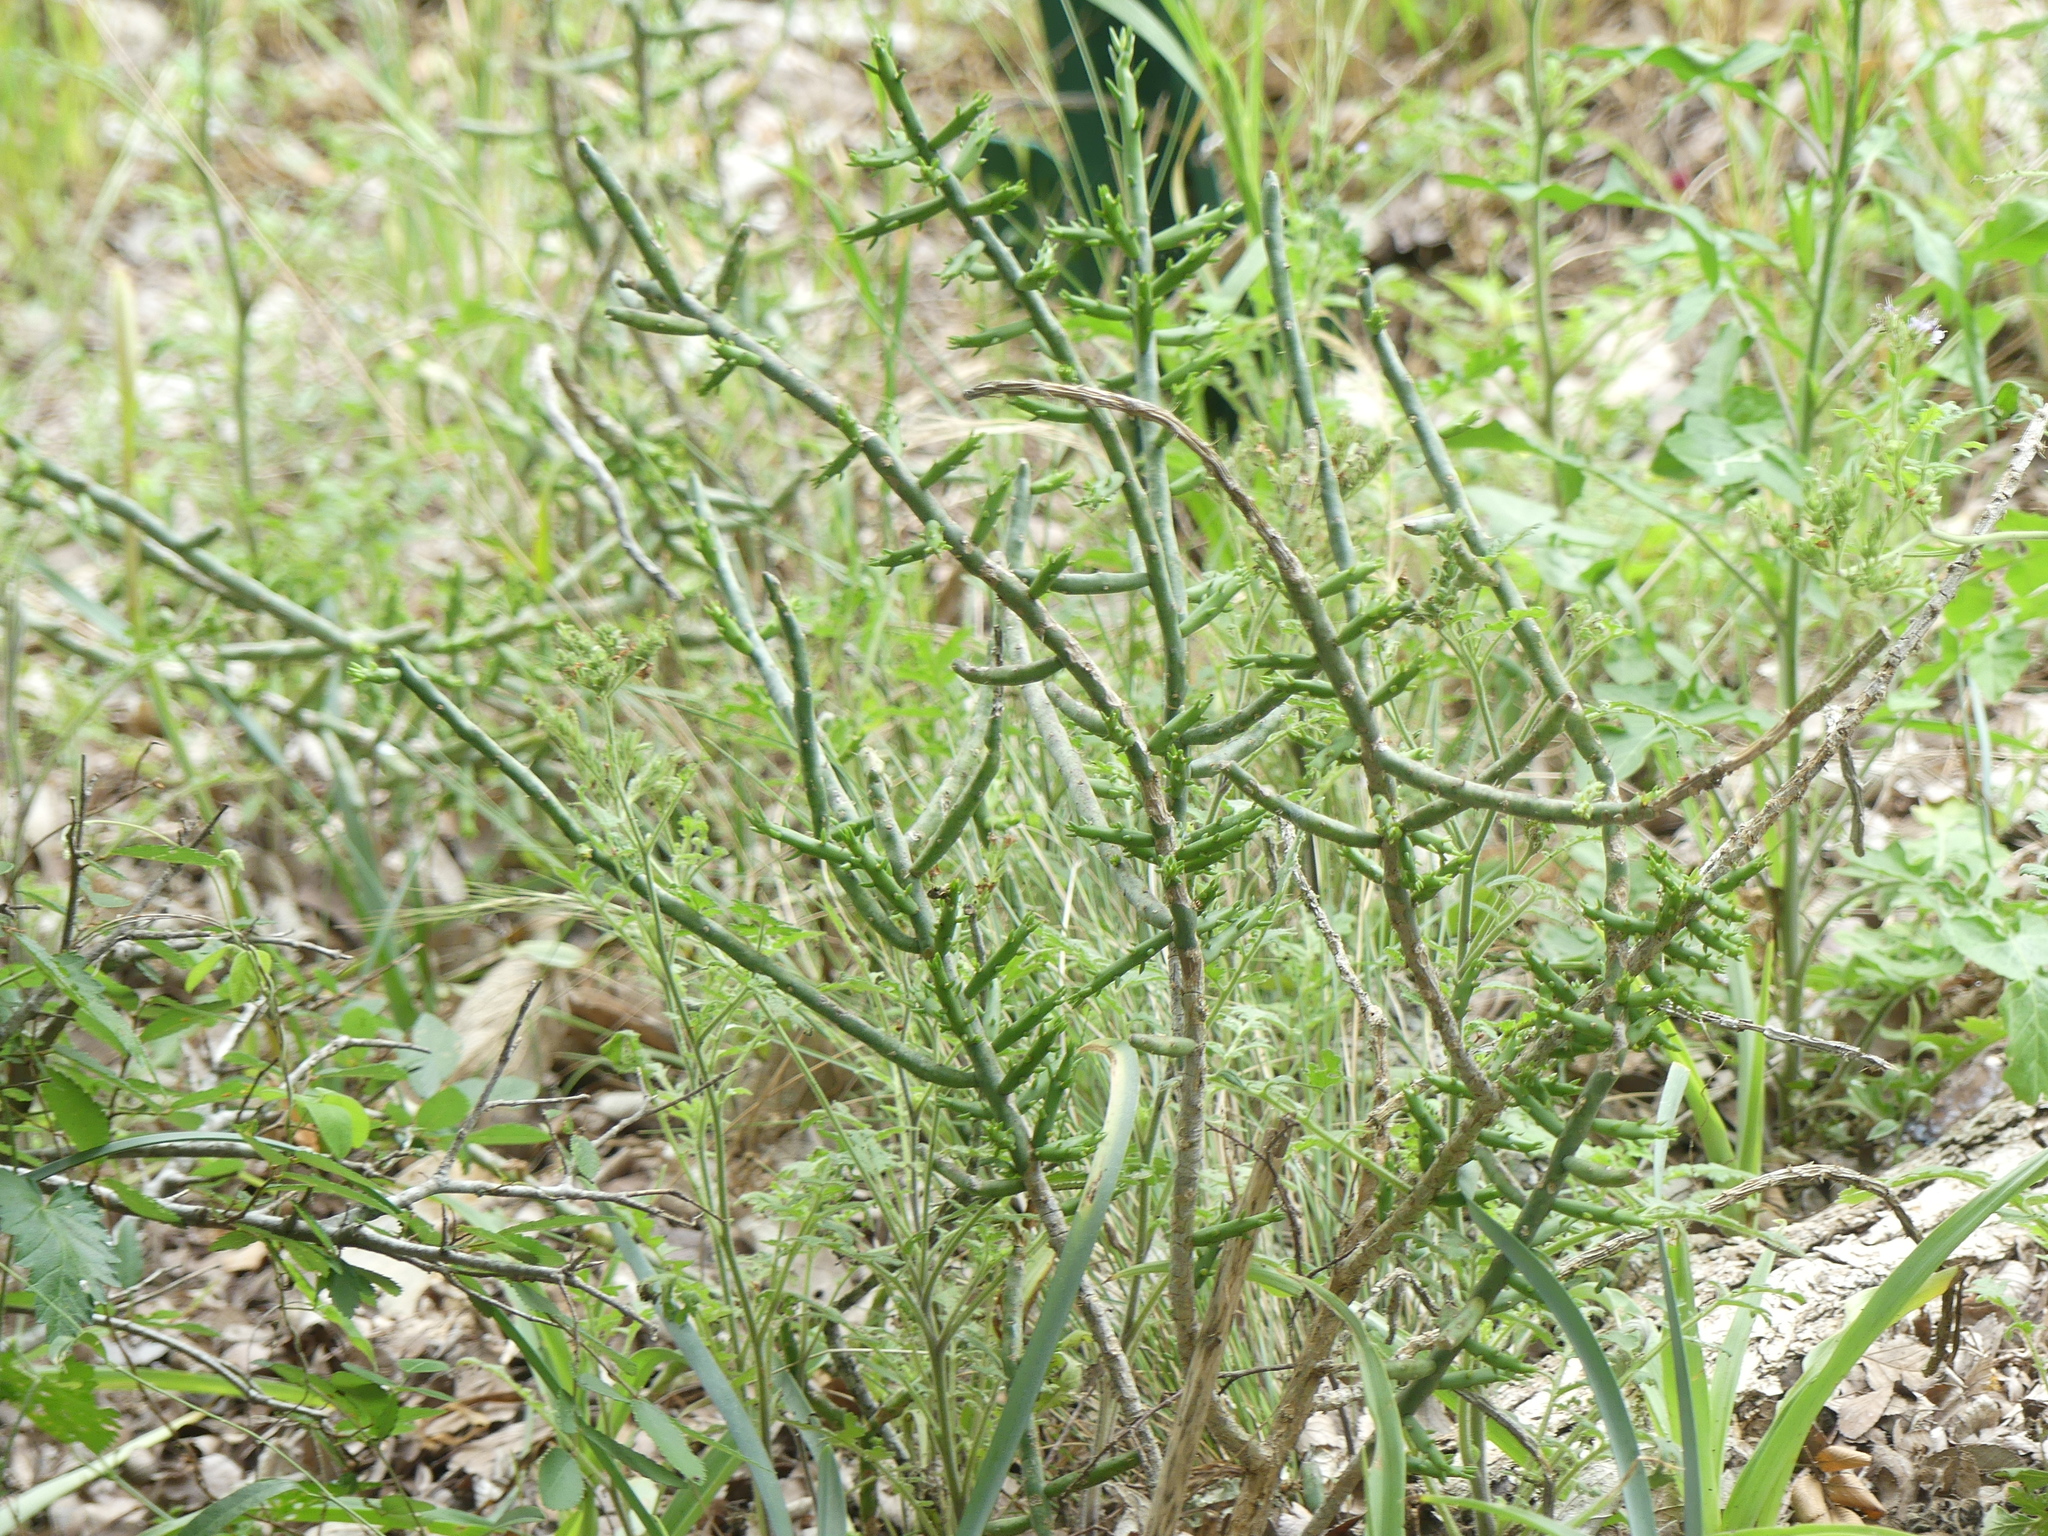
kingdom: Plantae
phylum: Tracheophyta
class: Magnoliopsida
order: Caryophyllales
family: Cactaceae
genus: Cylindropuntia
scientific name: Cylindropuntia leptocaulis
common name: Christmas cactus
